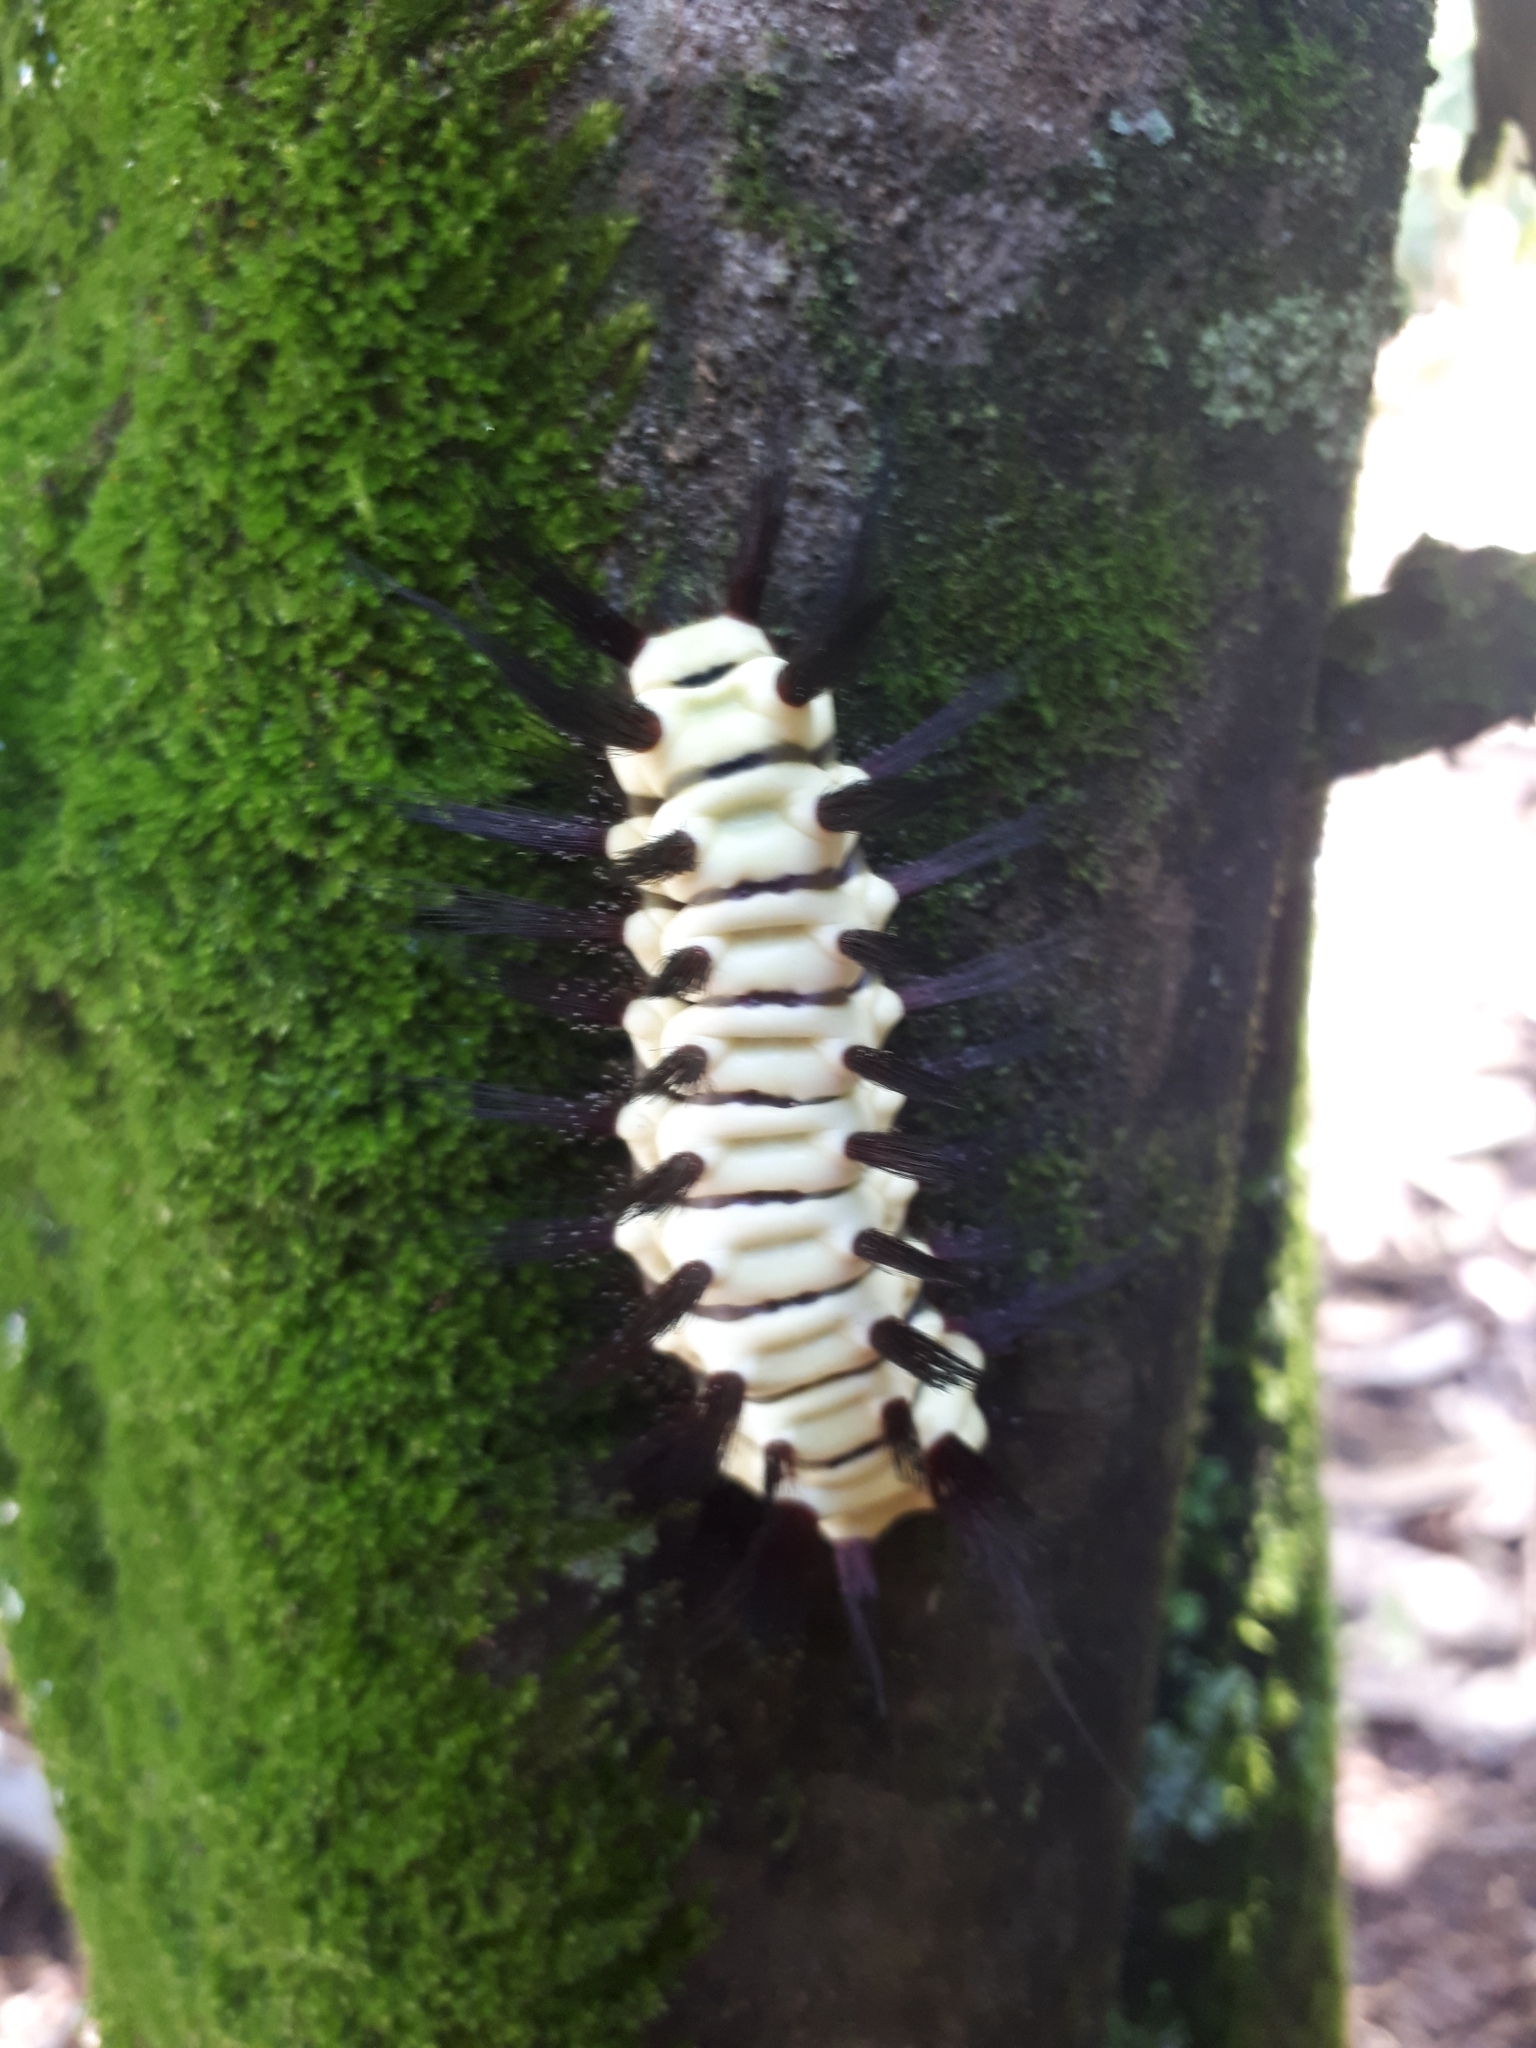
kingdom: Animalia
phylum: Arthropoda
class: Insecta
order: Lepidoptera
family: Megalopygidae
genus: Megalopyge
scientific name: Megalopyge lanata
